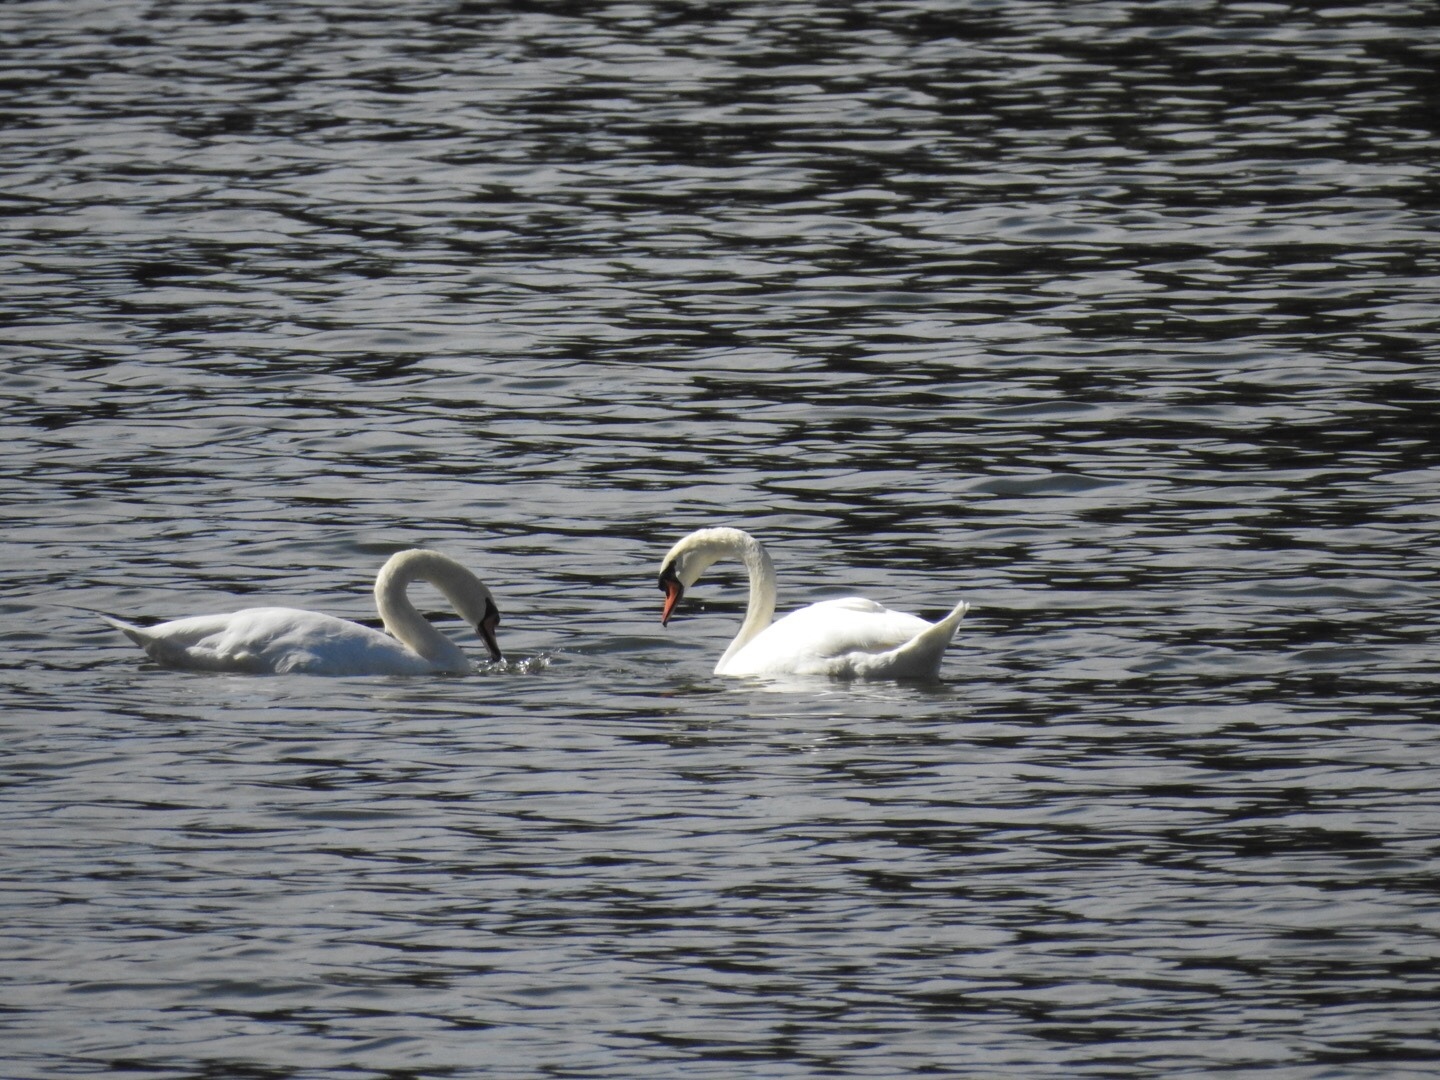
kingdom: Animalia
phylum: Chordata
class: Aves
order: Anseriformes
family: Anatidae
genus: Cygnus
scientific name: Cygnus olor
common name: Mute swan
